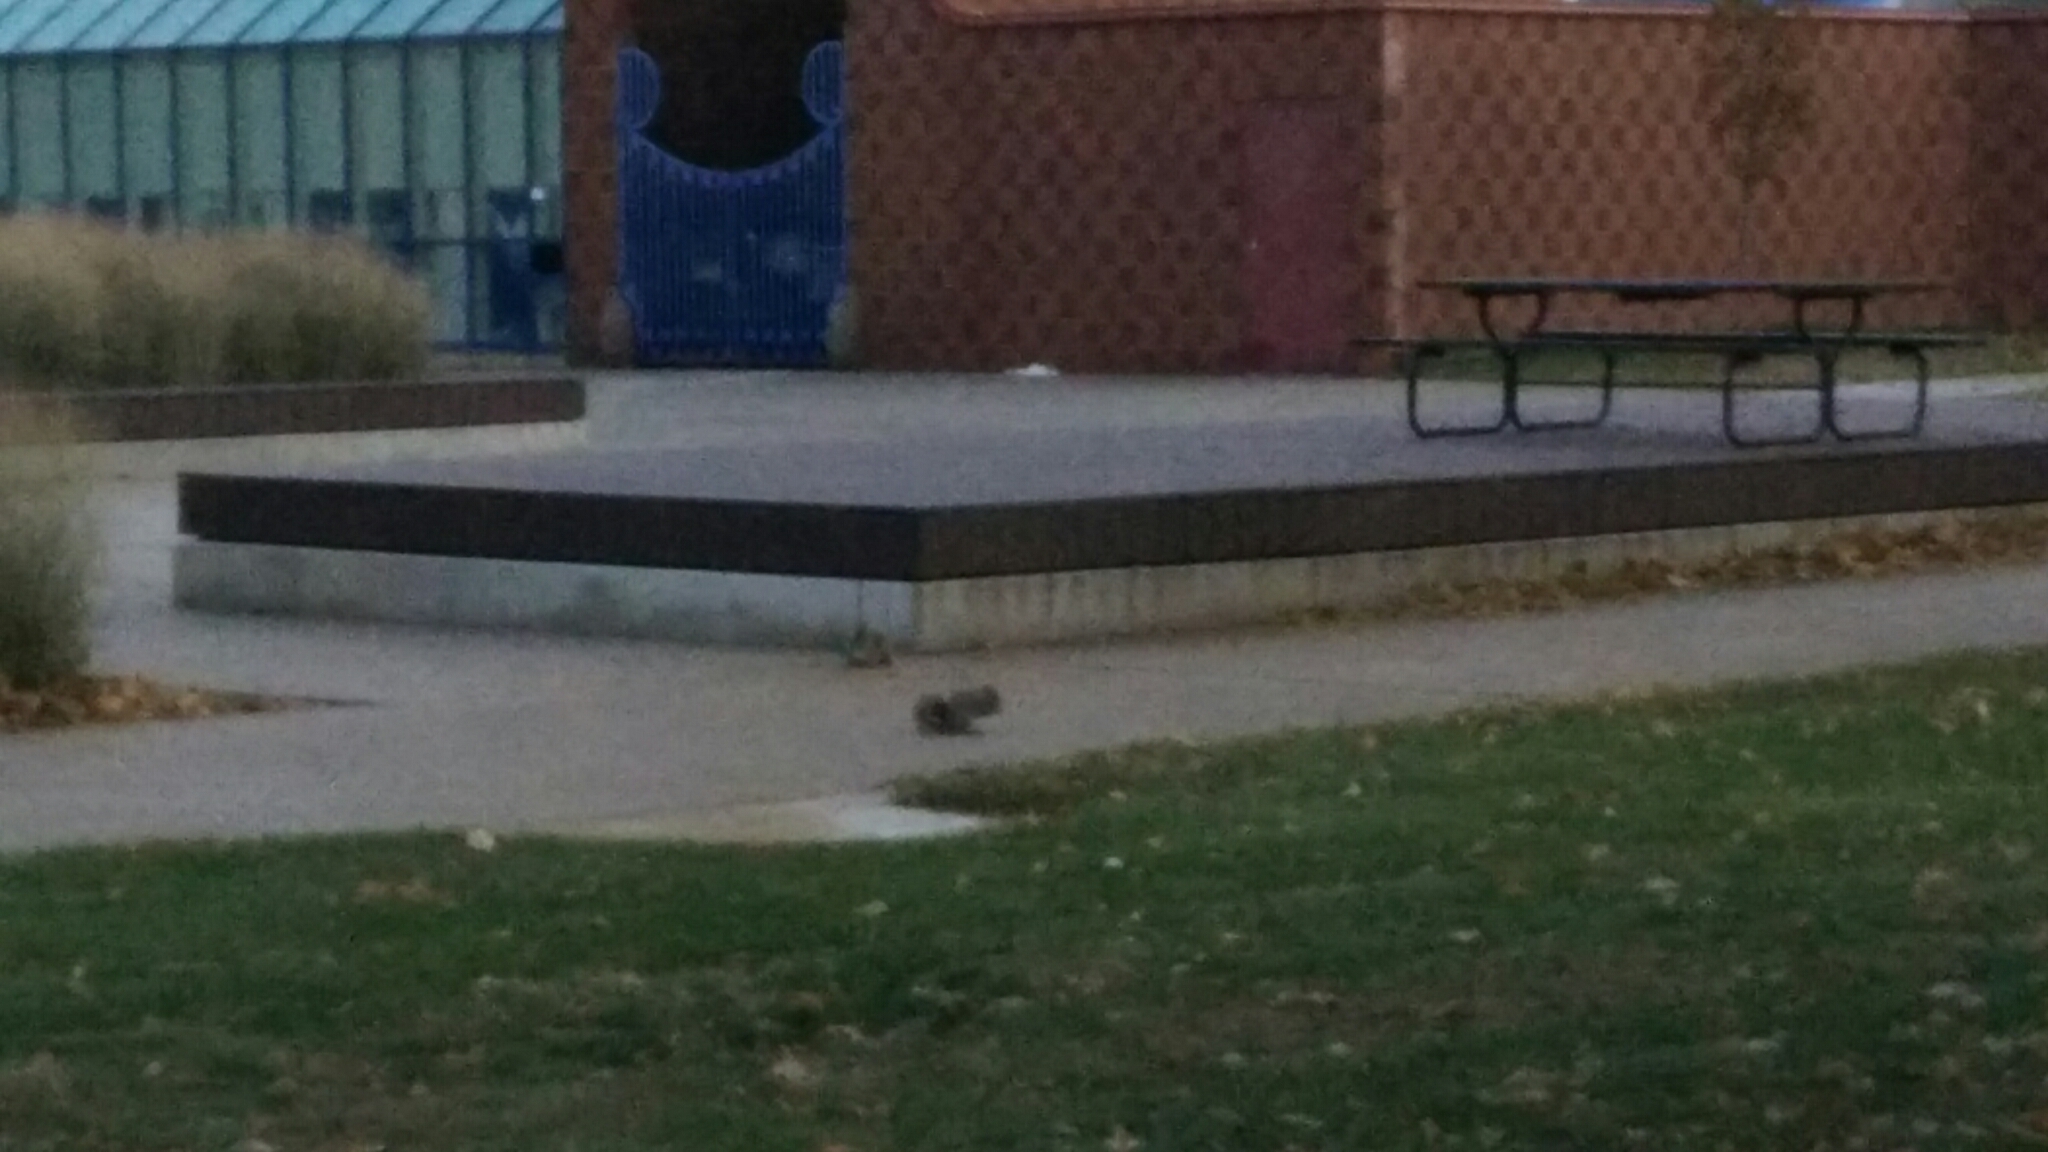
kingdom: Animalia
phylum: Chordata
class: Mammalia
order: Rodentia
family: Sciuridae
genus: Sciurus
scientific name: Sciurus carolinensis
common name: Eastern gray squirrel
